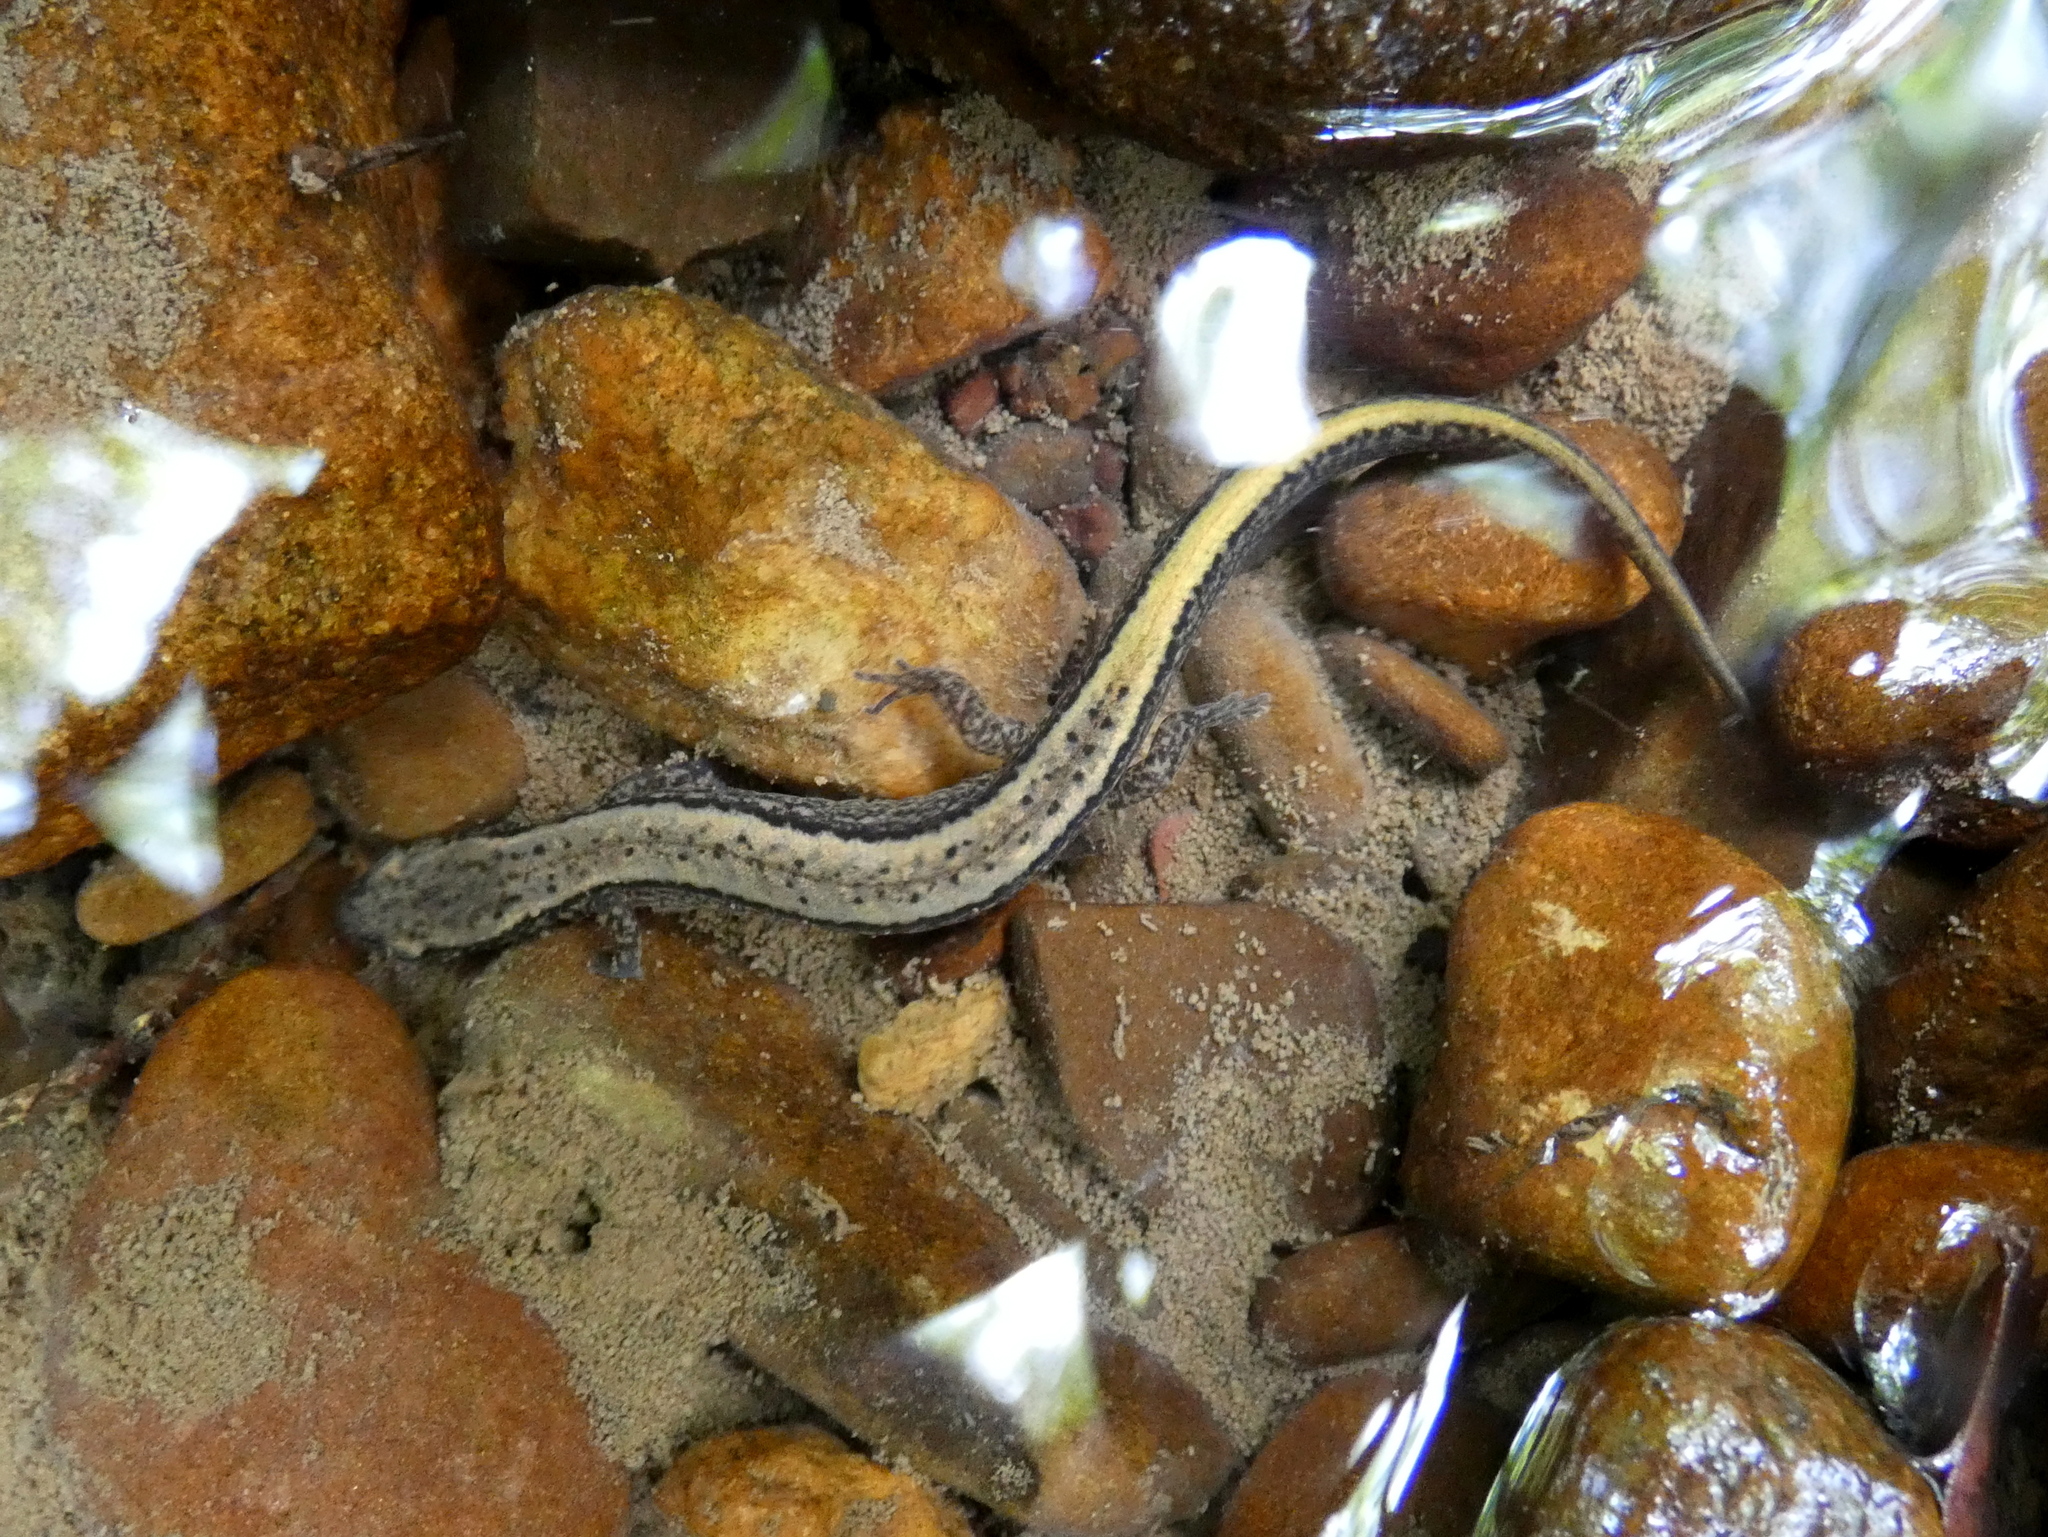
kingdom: Animalia
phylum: Chordata
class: Amphibia
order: Caudata
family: Plethodontidae
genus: Eurycea
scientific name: Eurycea bislineata
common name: Northern two-lined salamander
